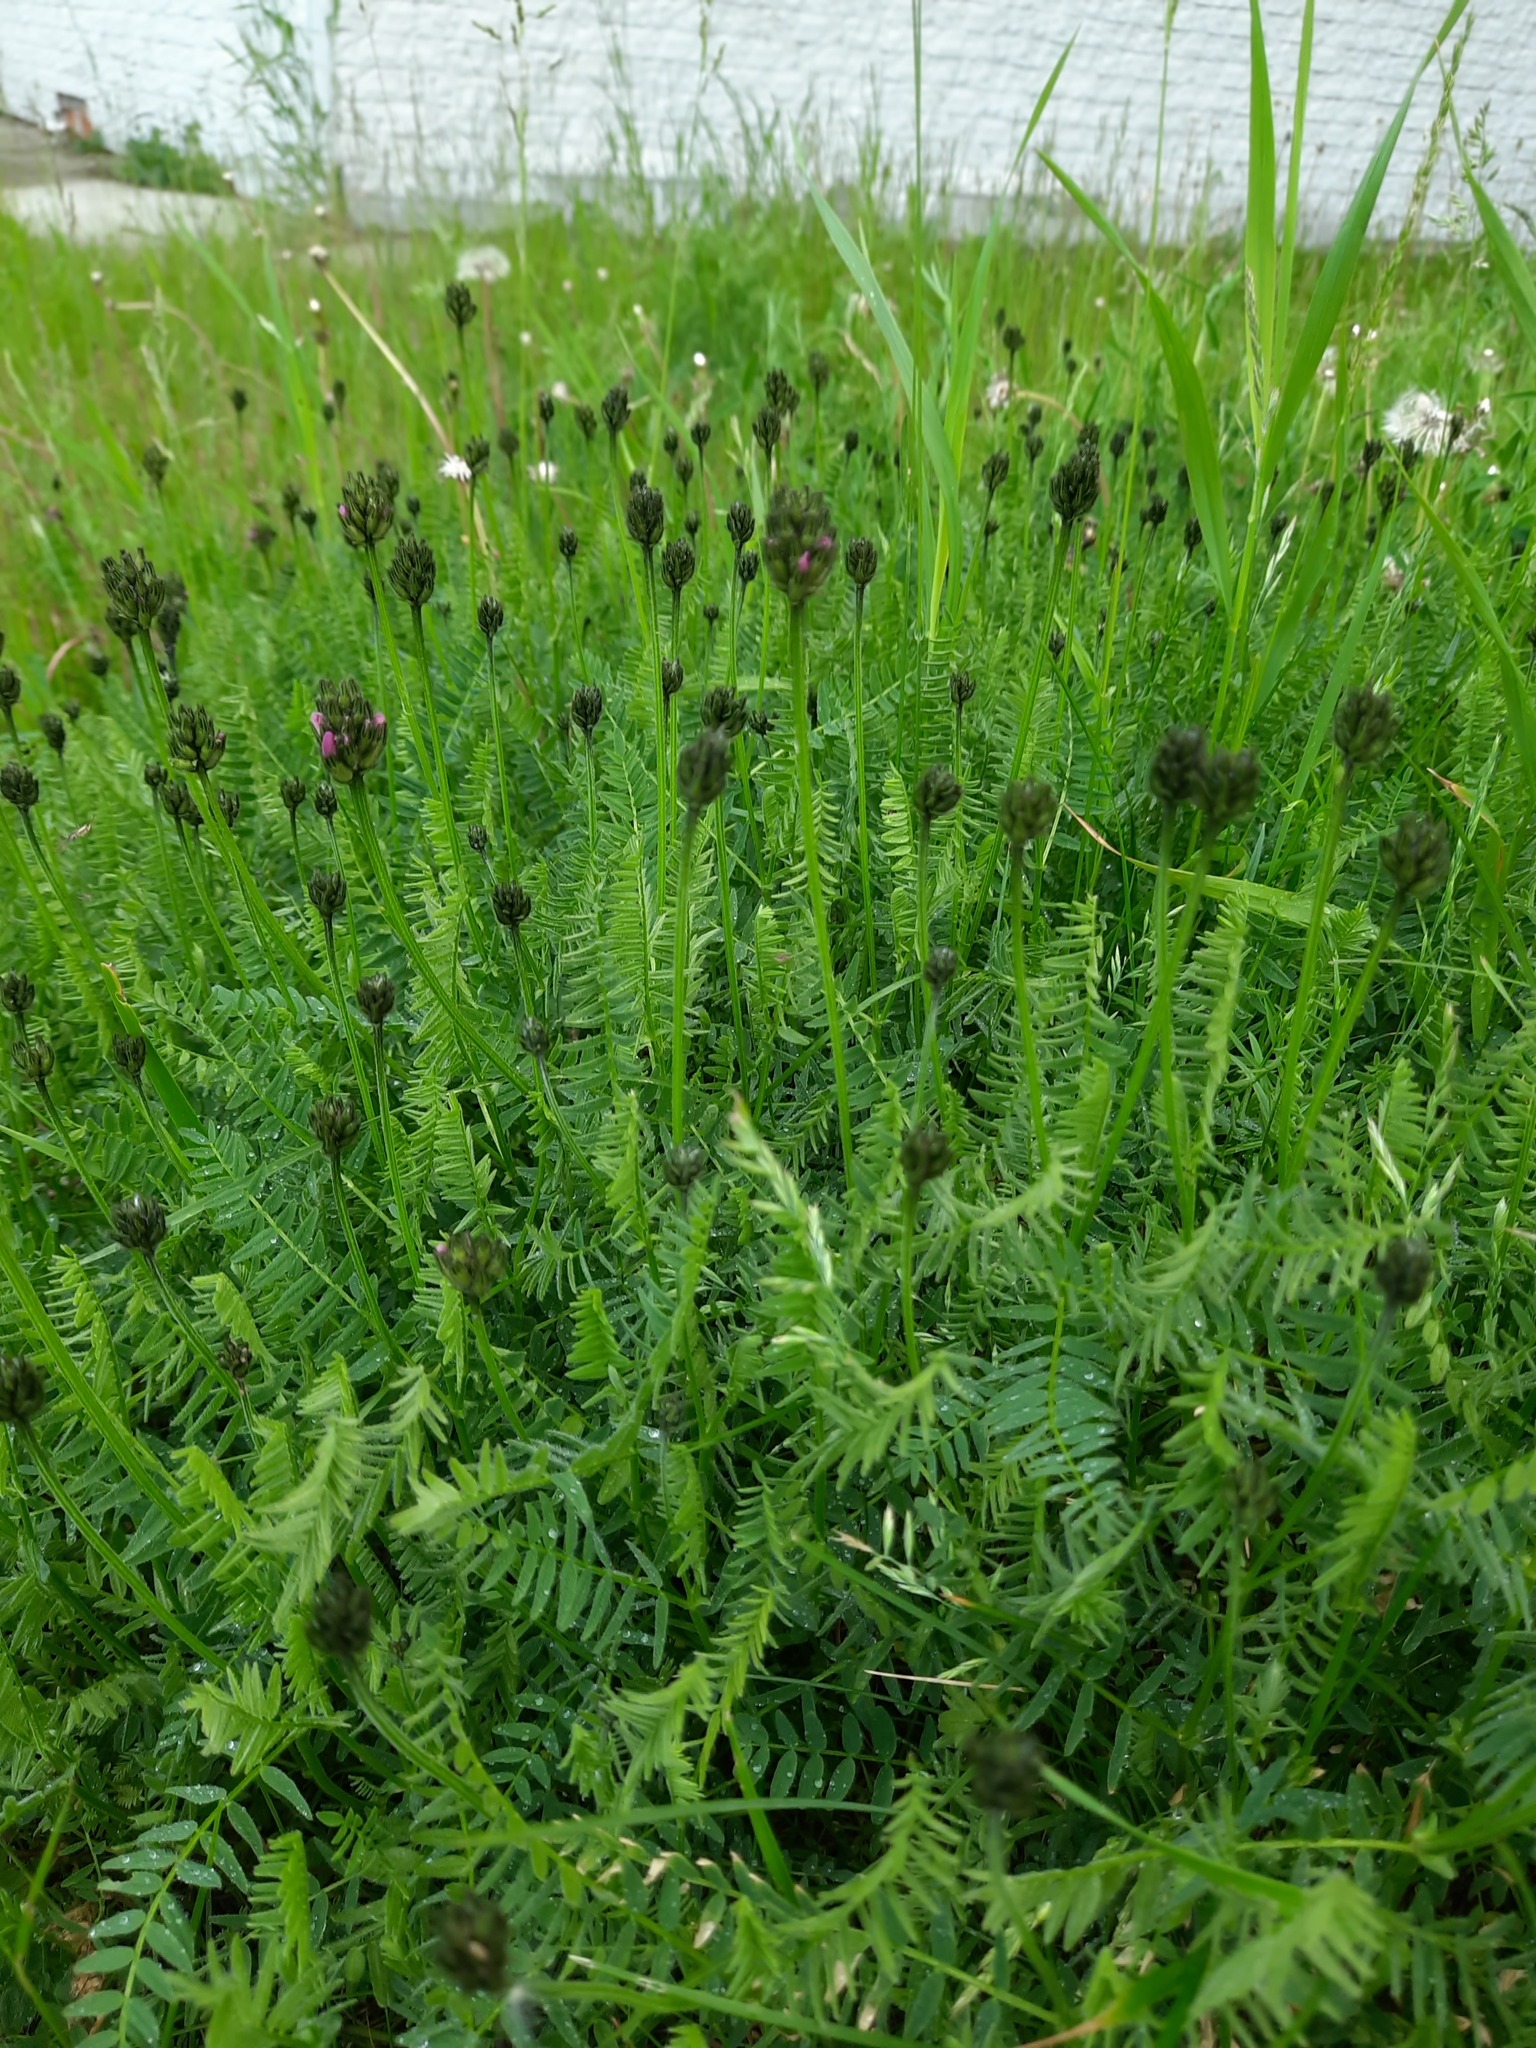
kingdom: Plantae
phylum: Tracheophyta
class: Magnoliopsida
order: Fabales
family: Fabaceae
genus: Astragalus
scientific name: Astragalus danicus
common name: Purple milk-vetch
